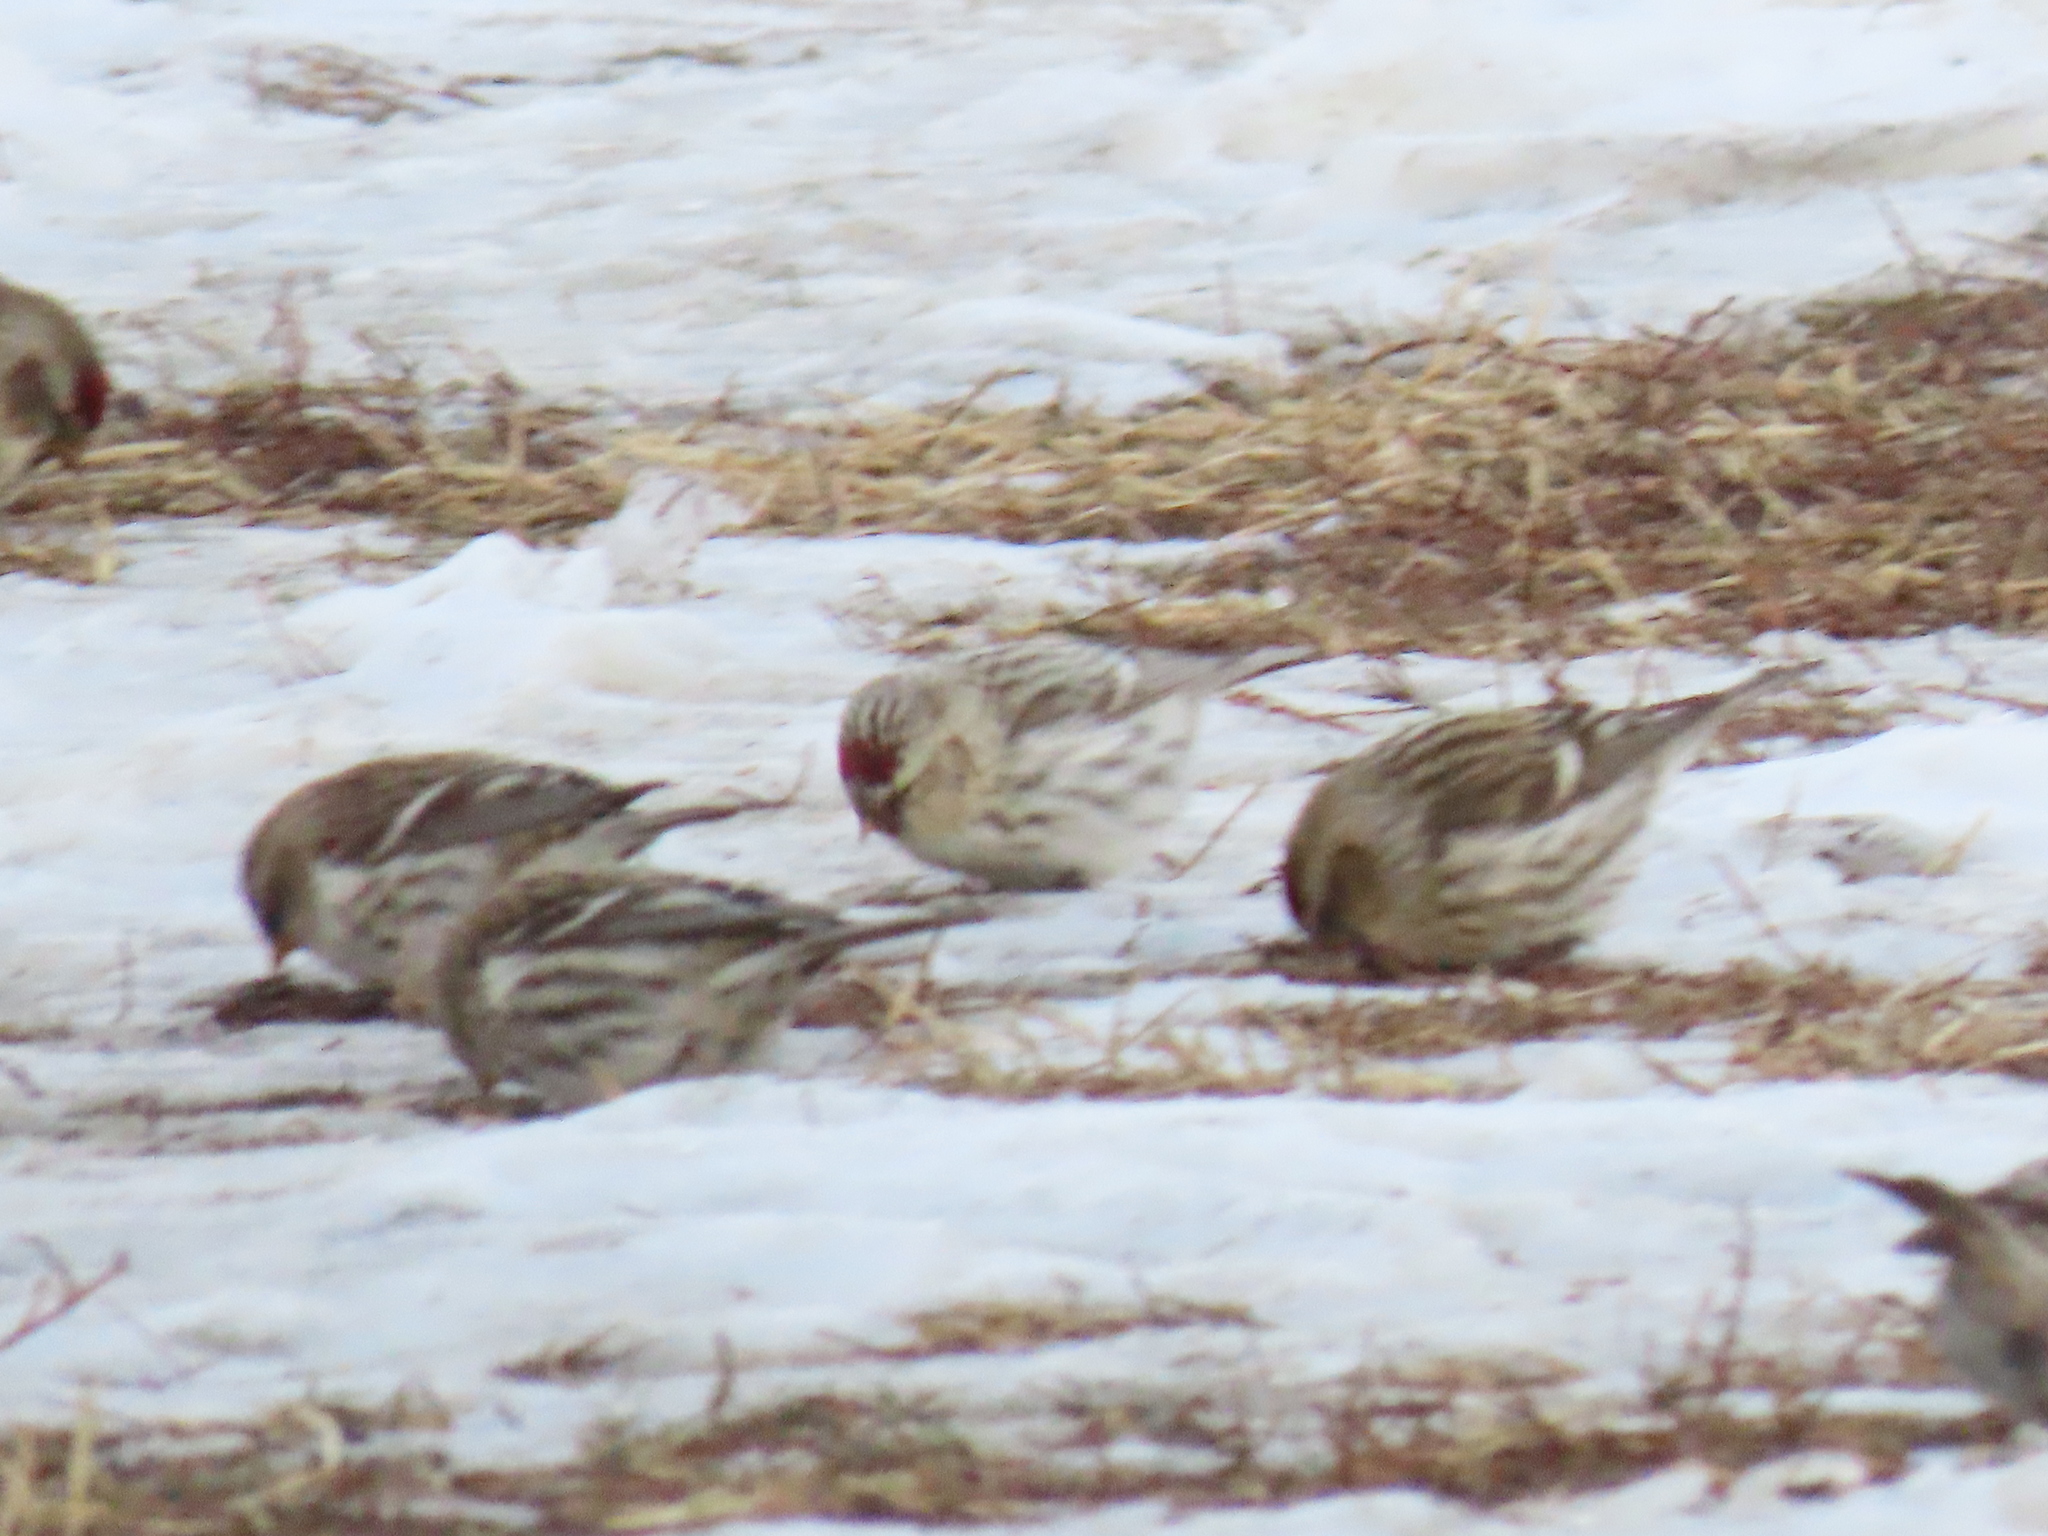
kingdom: Animalia
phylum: Chordata
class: Aves
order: Passeriformes
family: Fringillidae
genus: Acanthis
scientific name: Acanthis hornemanni
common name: Arctic redpoll
